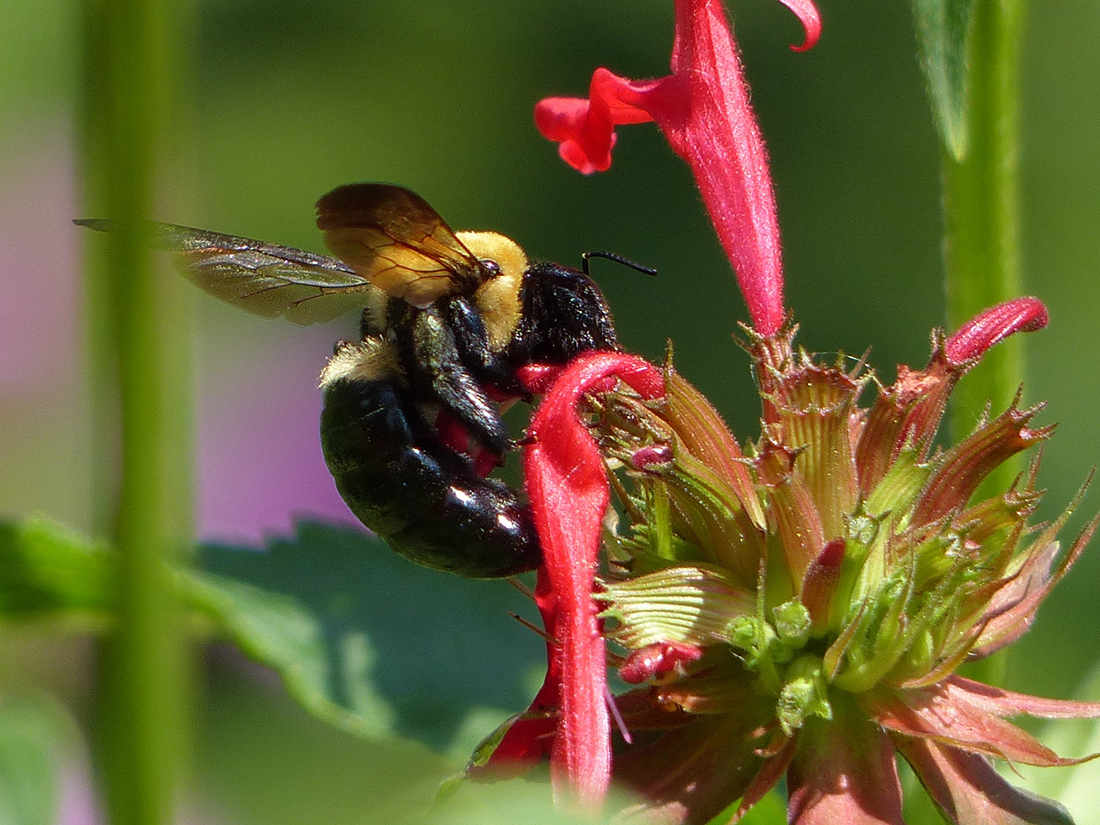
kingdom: Animalia
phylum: Arthropoda
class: Insecta
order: Hymenoptera
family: Apidae
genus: Xylocopa
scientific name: Xylocopa virginica
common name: Carpenter bee
